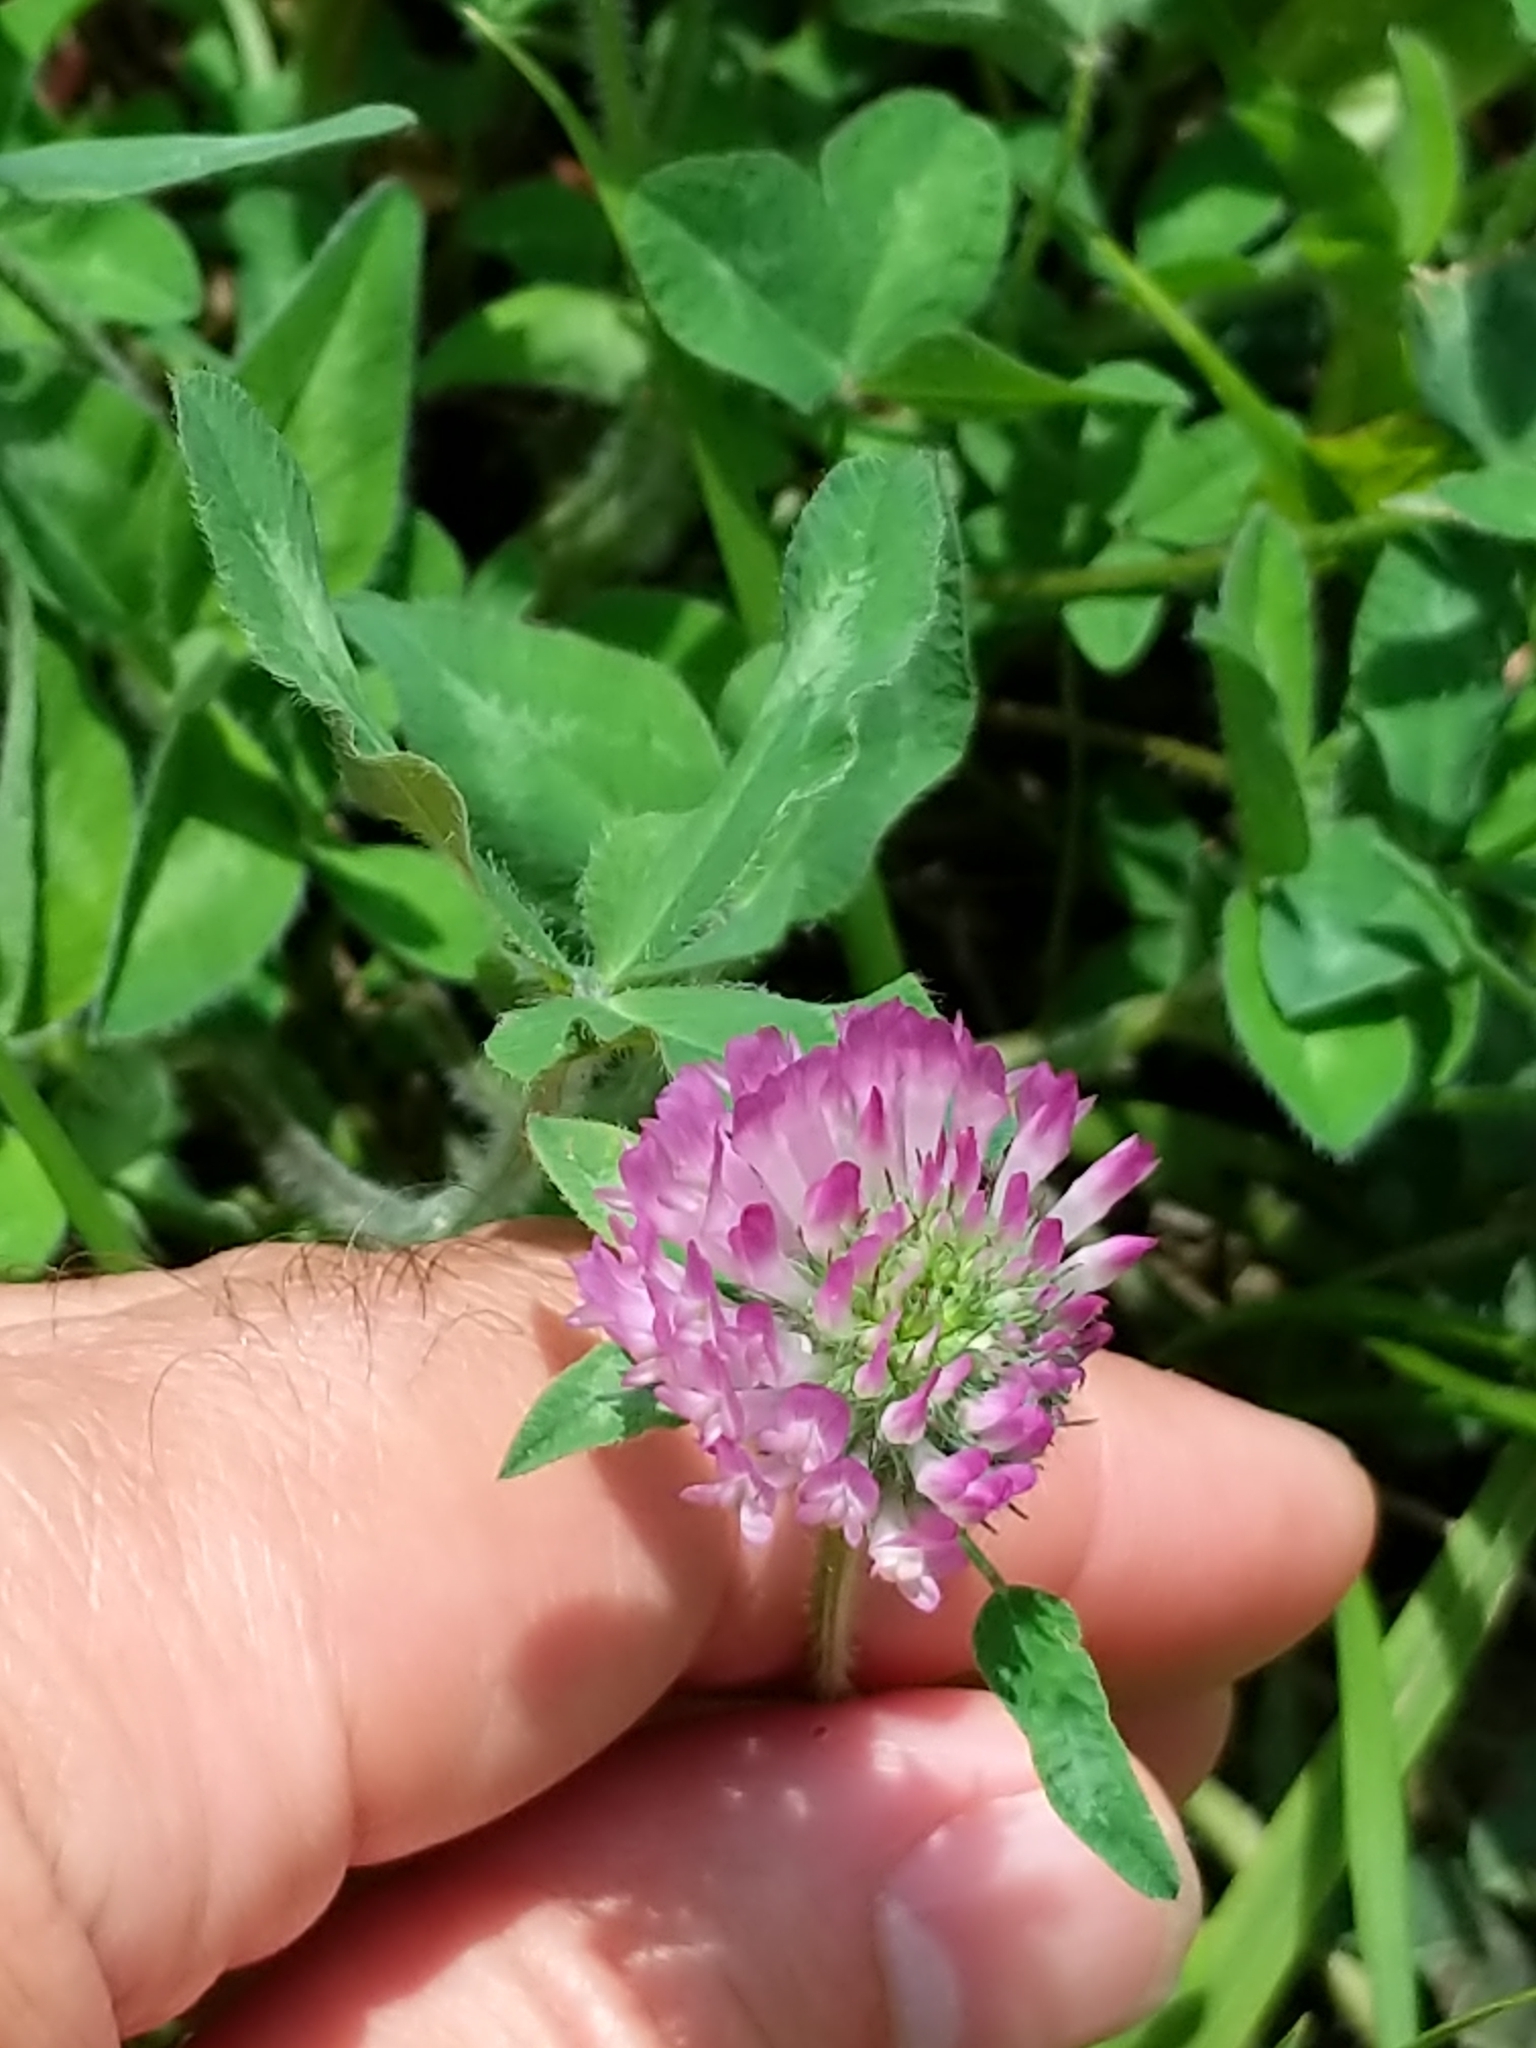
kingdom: Plantae
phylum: Tracheophyta
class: Magnoliopsida
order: Fabales
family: Fabaceae
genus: Trifolium
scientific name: Trifolium pratense
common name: Red clover
